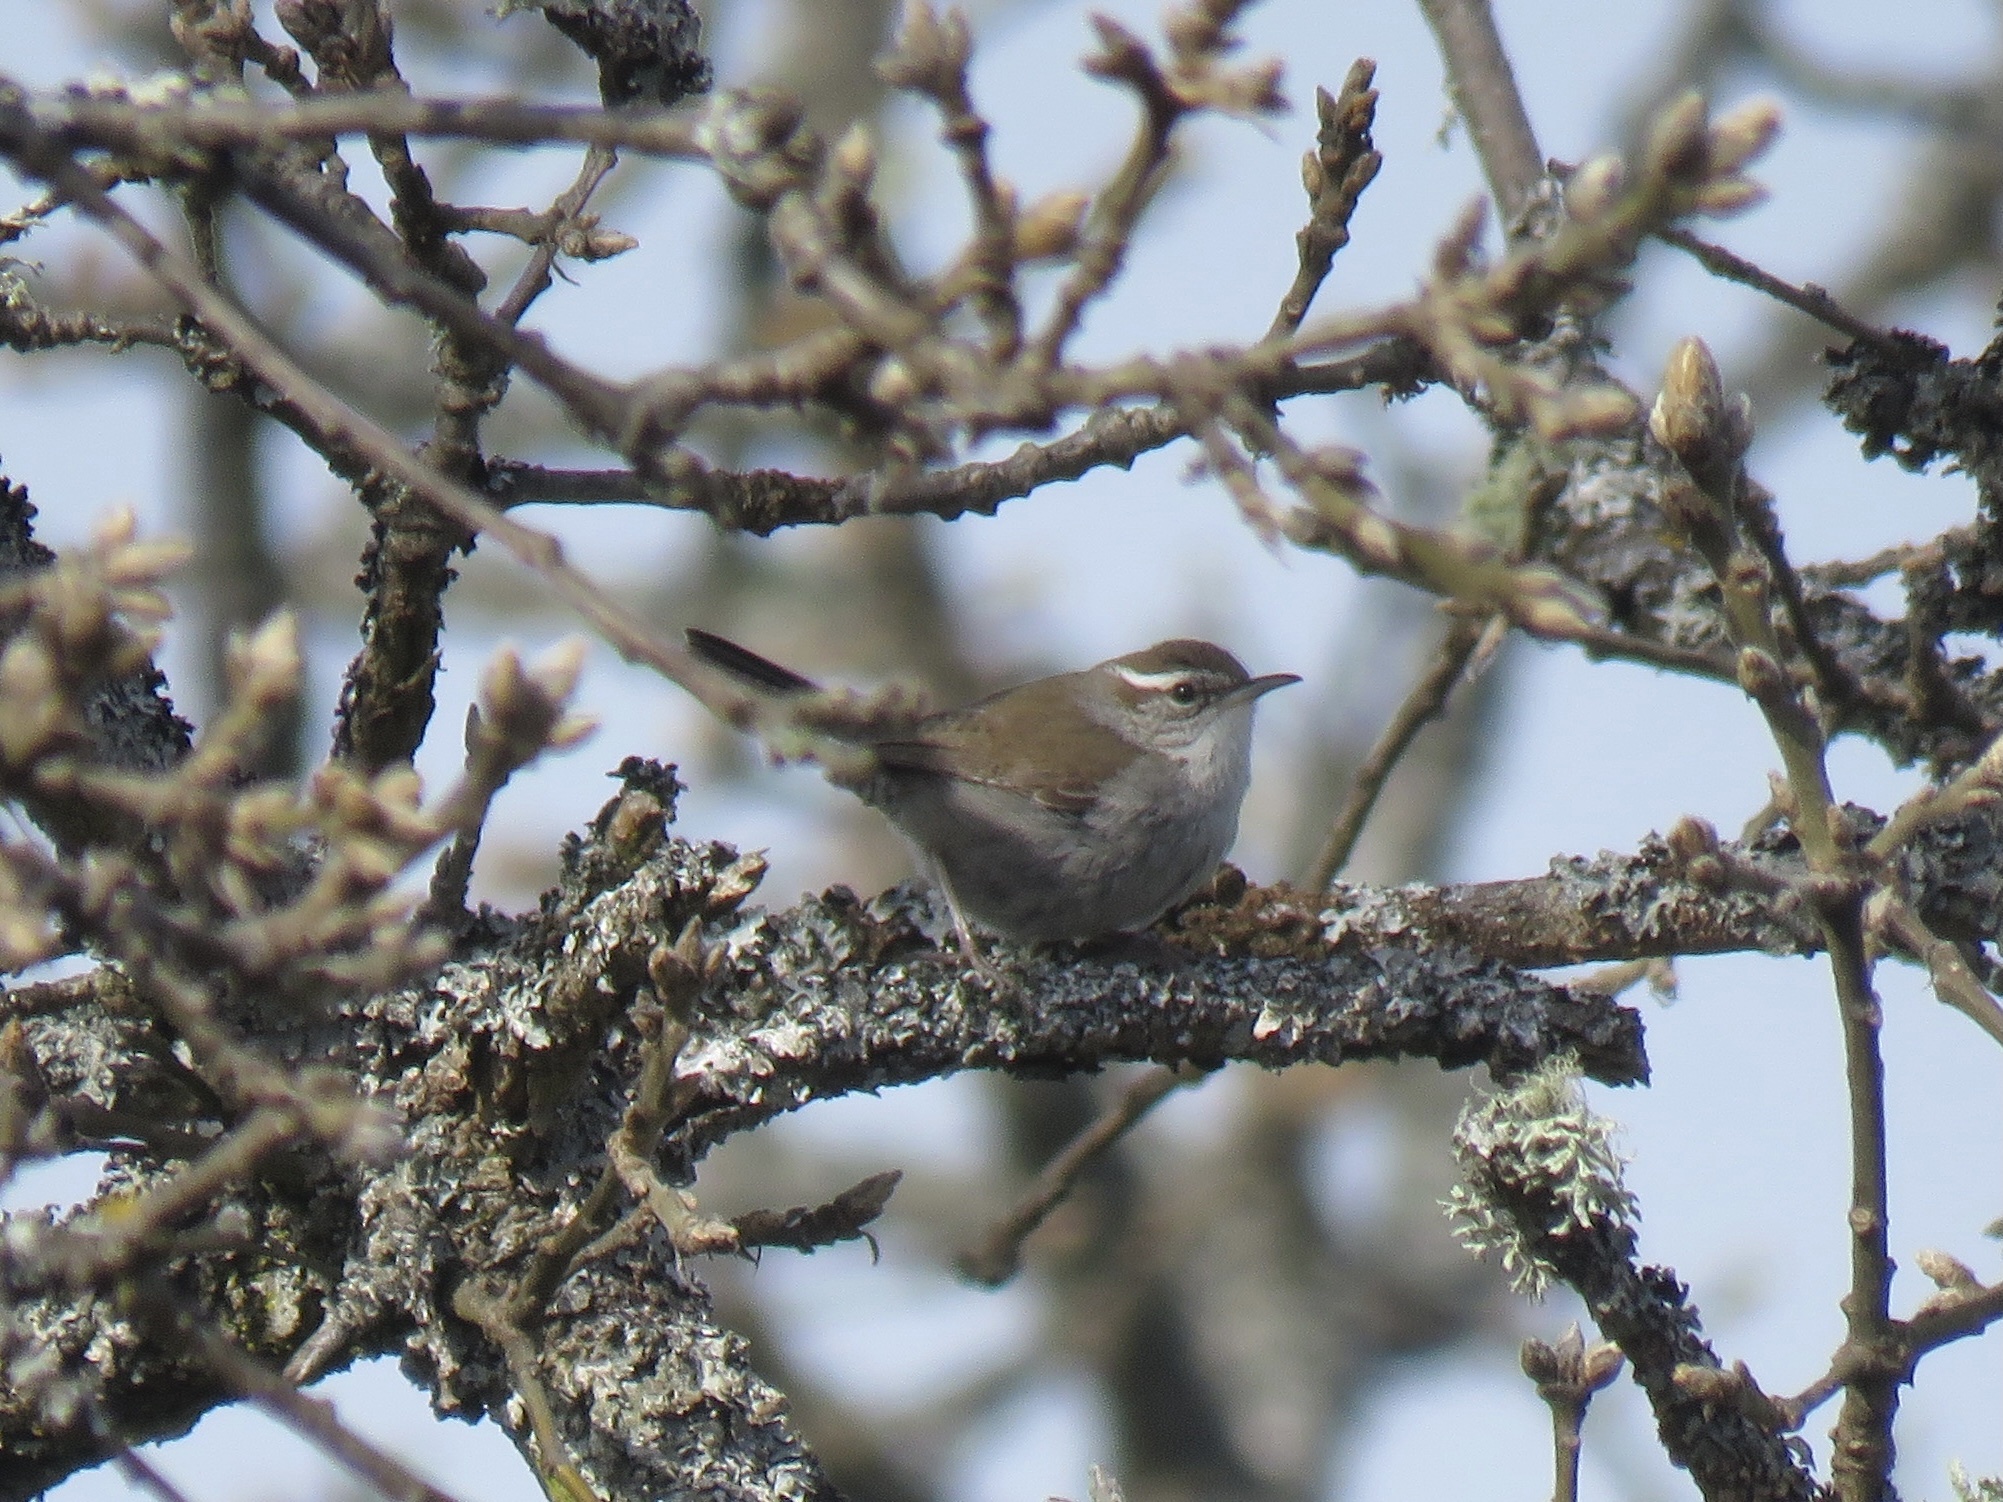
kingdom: Animalia
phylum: Chordata
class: Aves
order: Passeriformes
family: Troglodytidae
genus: Thryomanes
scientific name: Thryomanes bewickii
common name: Bewick's wren
